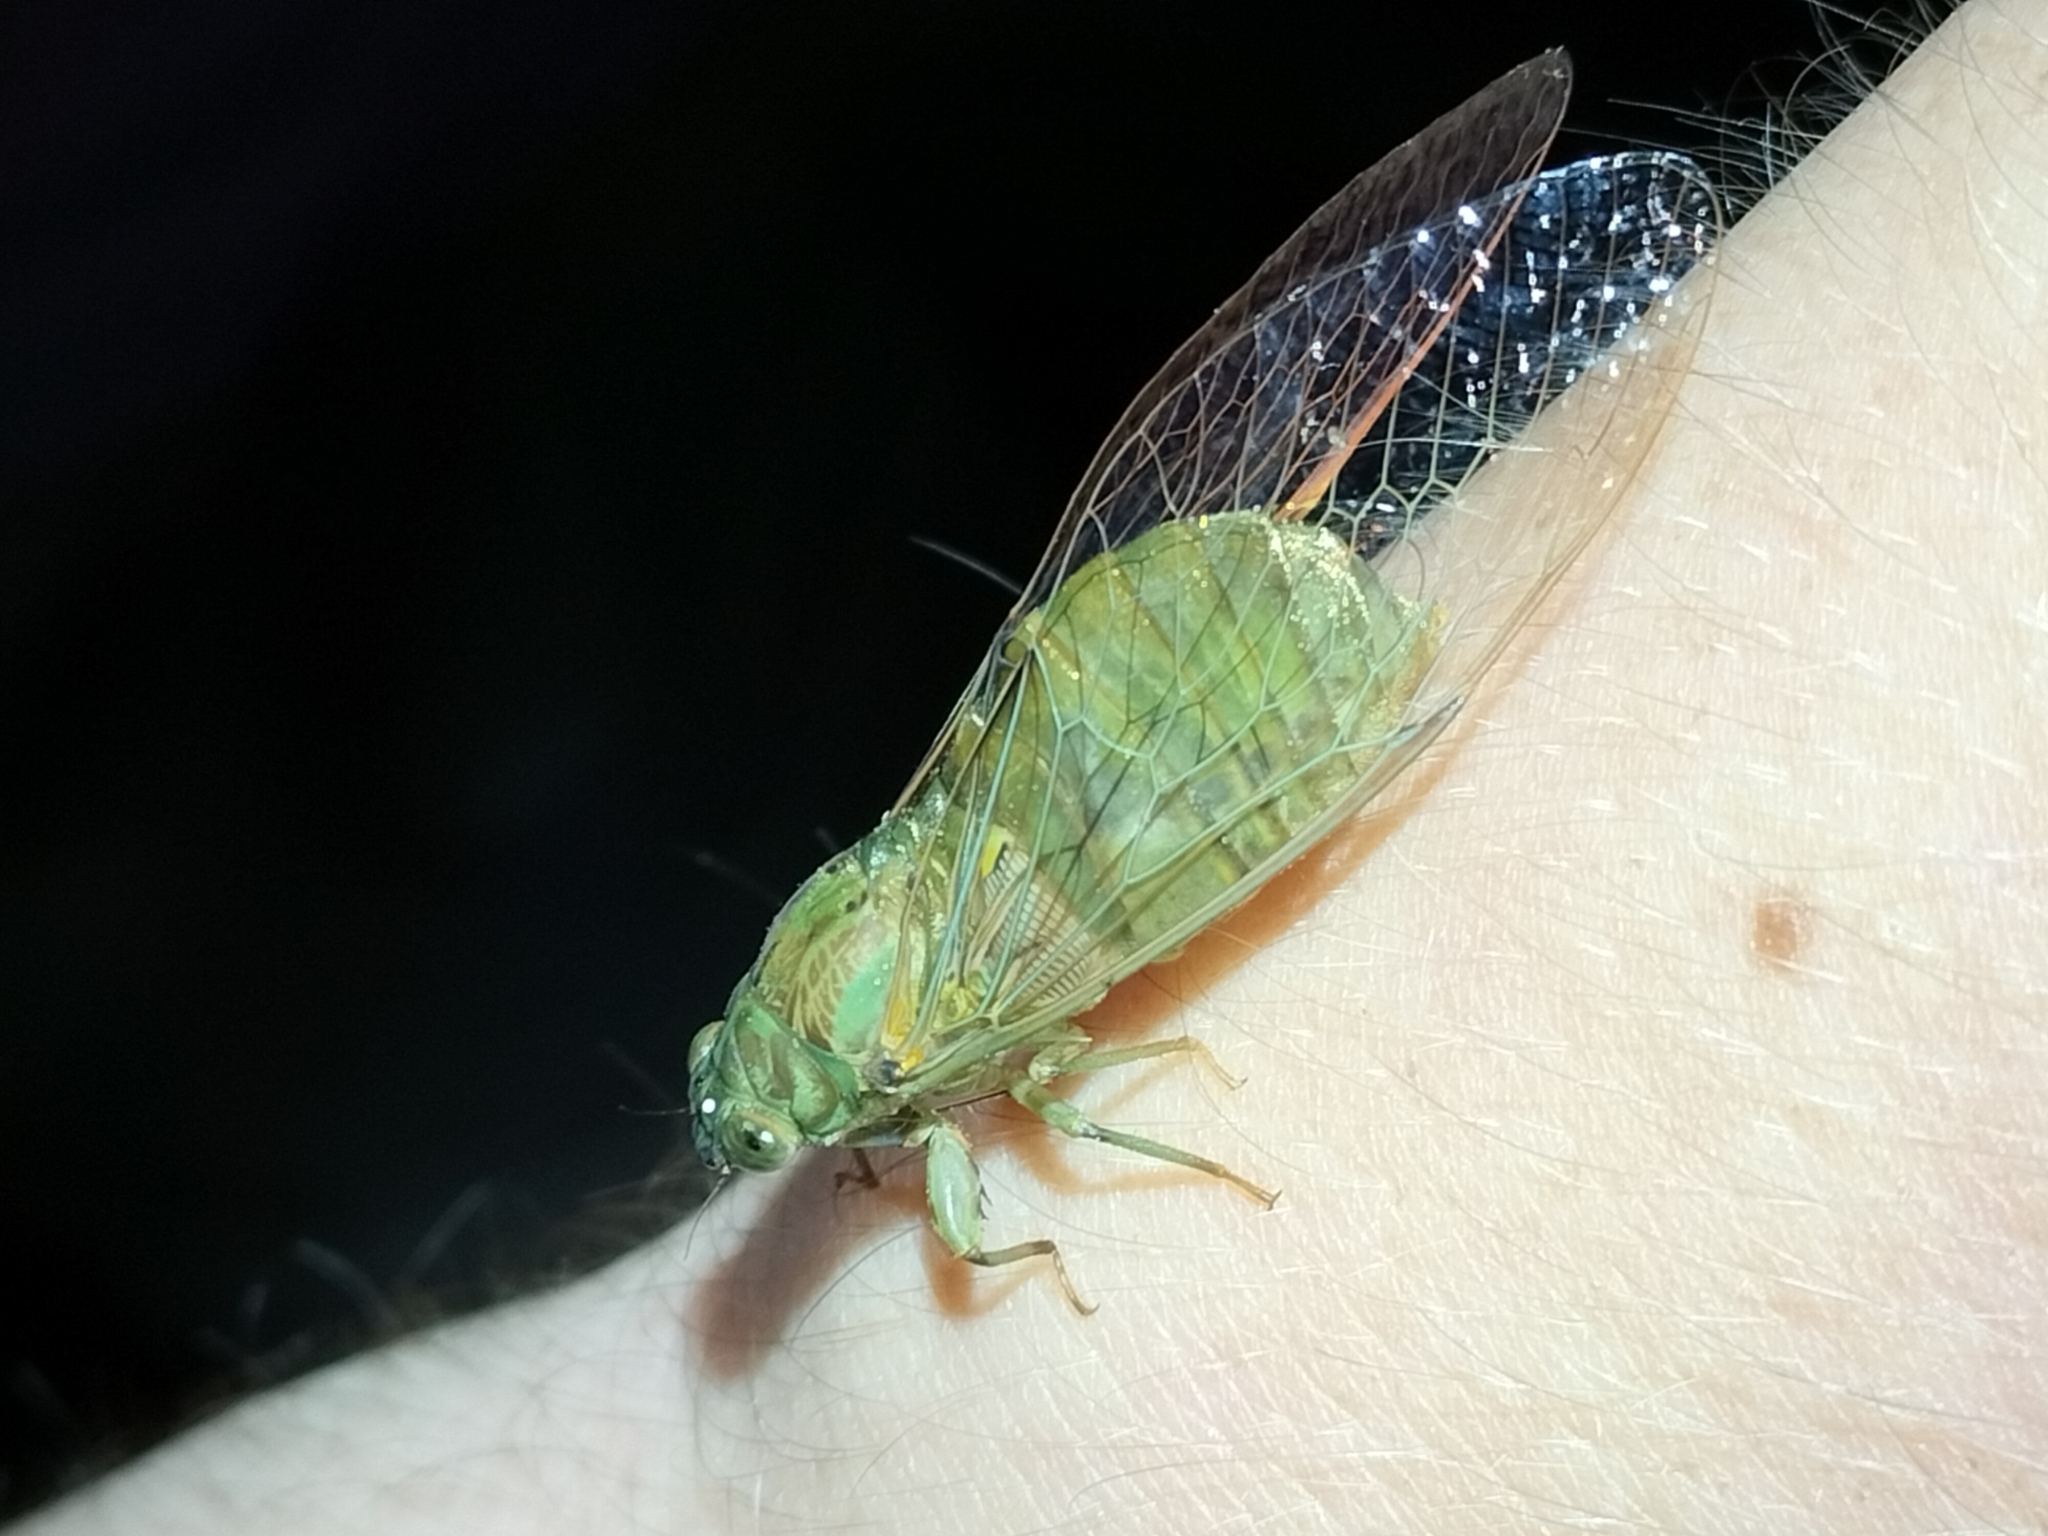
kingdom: Animalia
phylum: Arthropoda
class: Insecta
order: Hemiptera
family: Cicadidae
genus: Chlorocysta
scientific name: Chlorocysta suffusa
